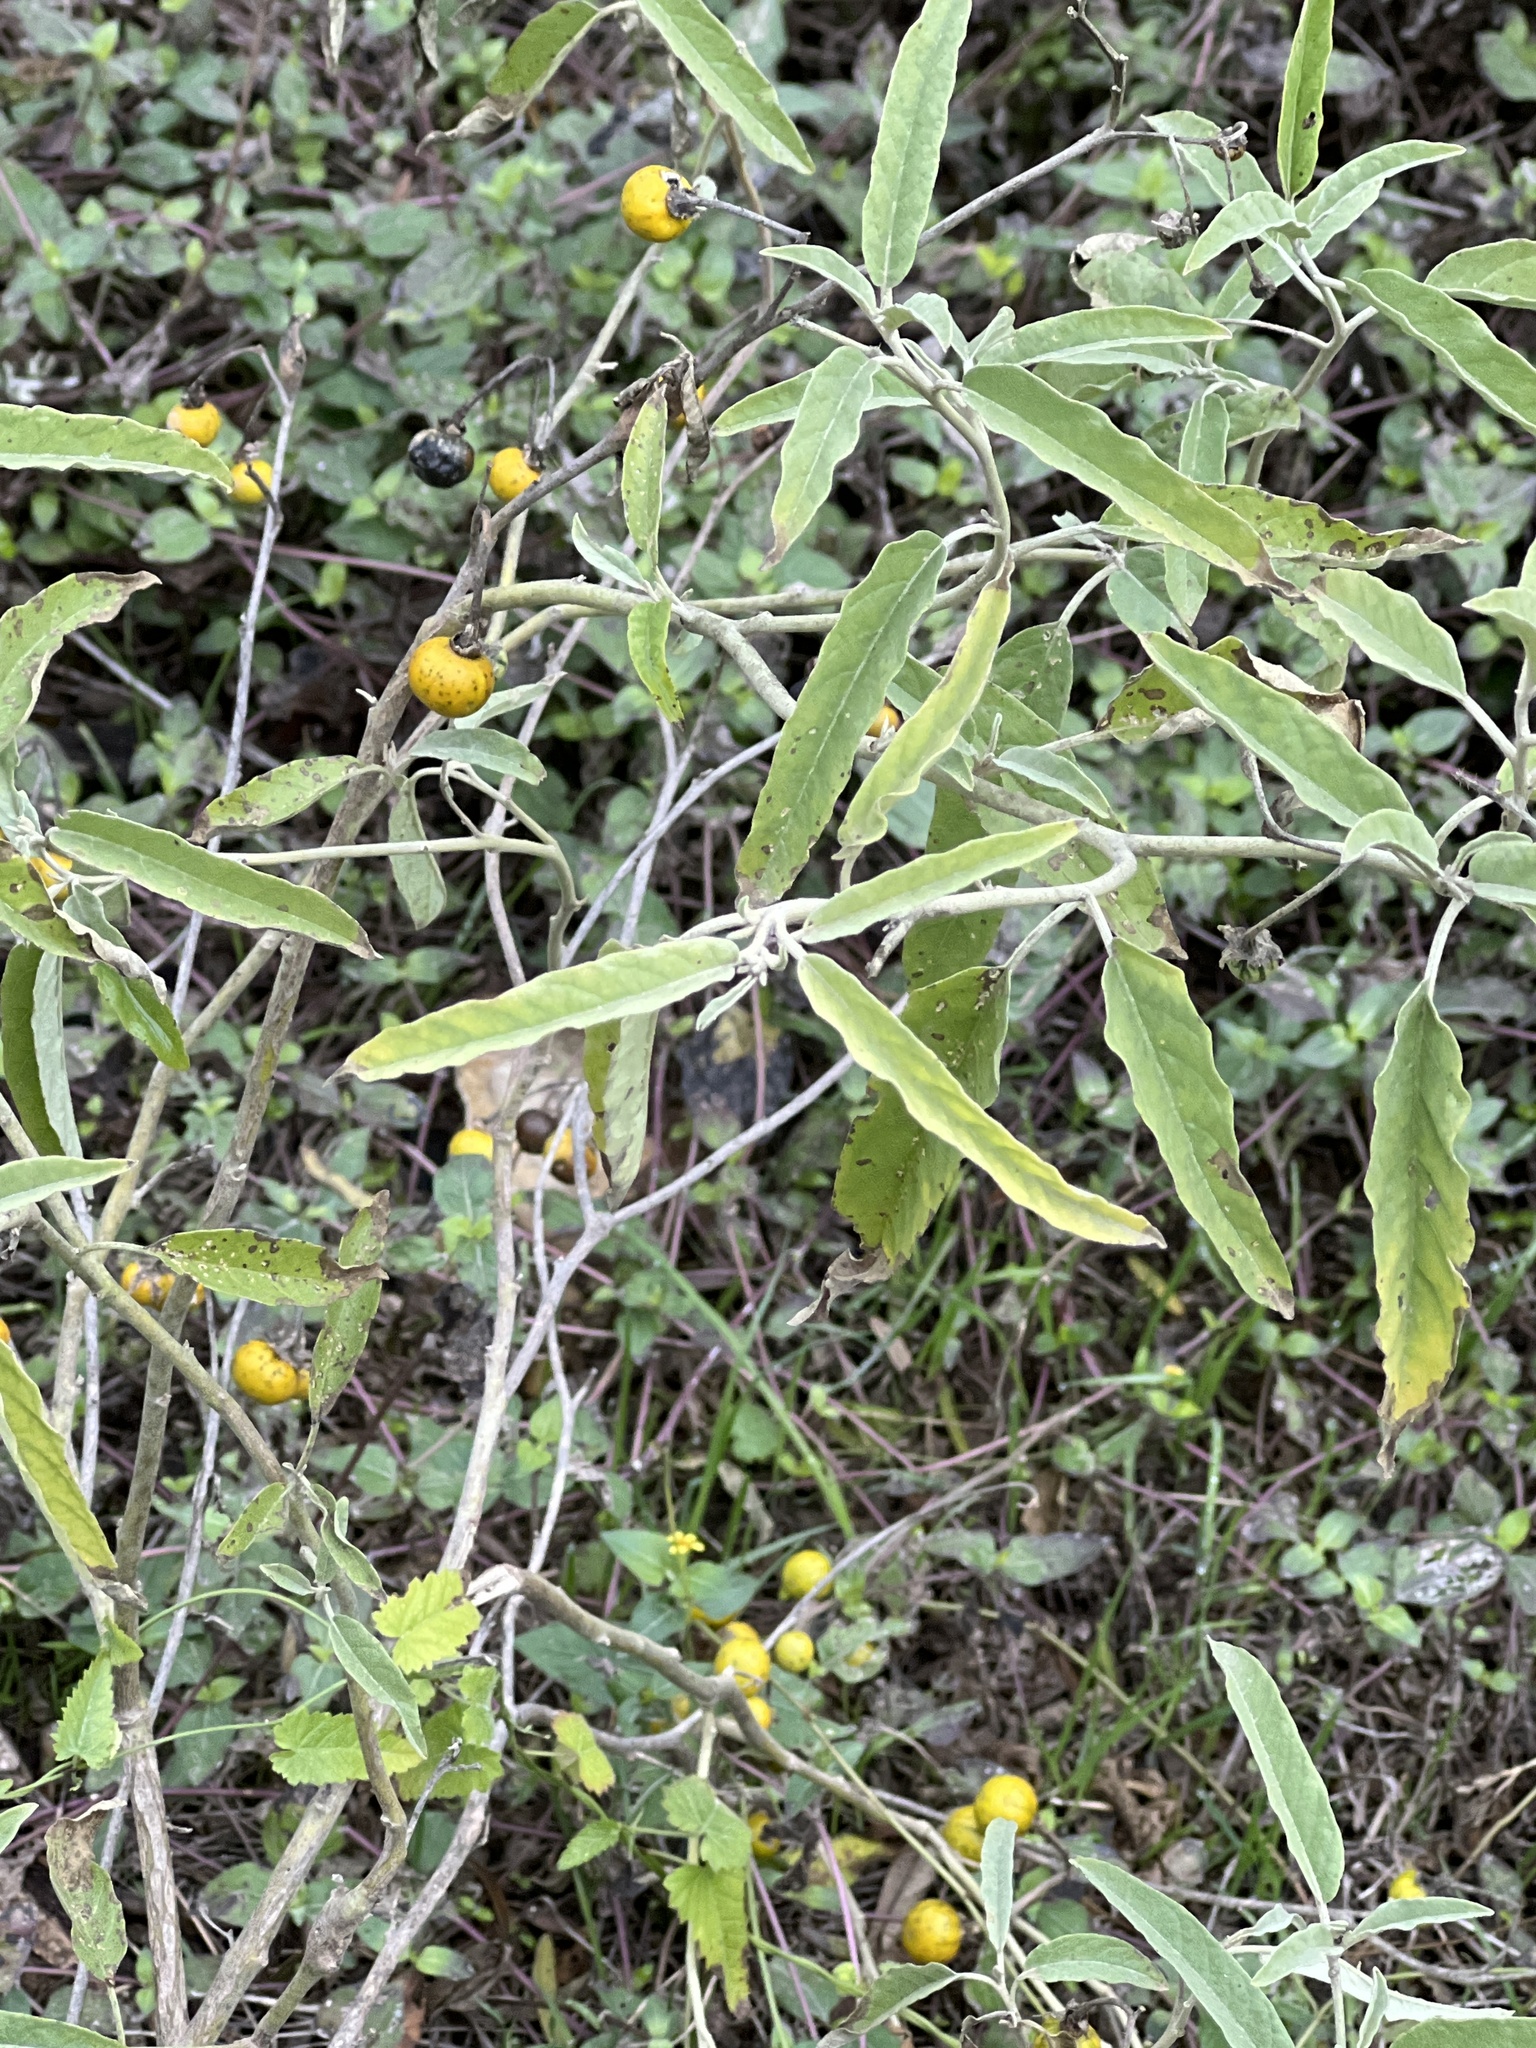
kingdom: Plantae
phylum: Tracheophyta
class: Magnoliopsida
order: Solanales
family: Solanaceae
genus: Solanum
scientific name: Solanum elaeagnifolium
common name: Silverleaf nightshade
